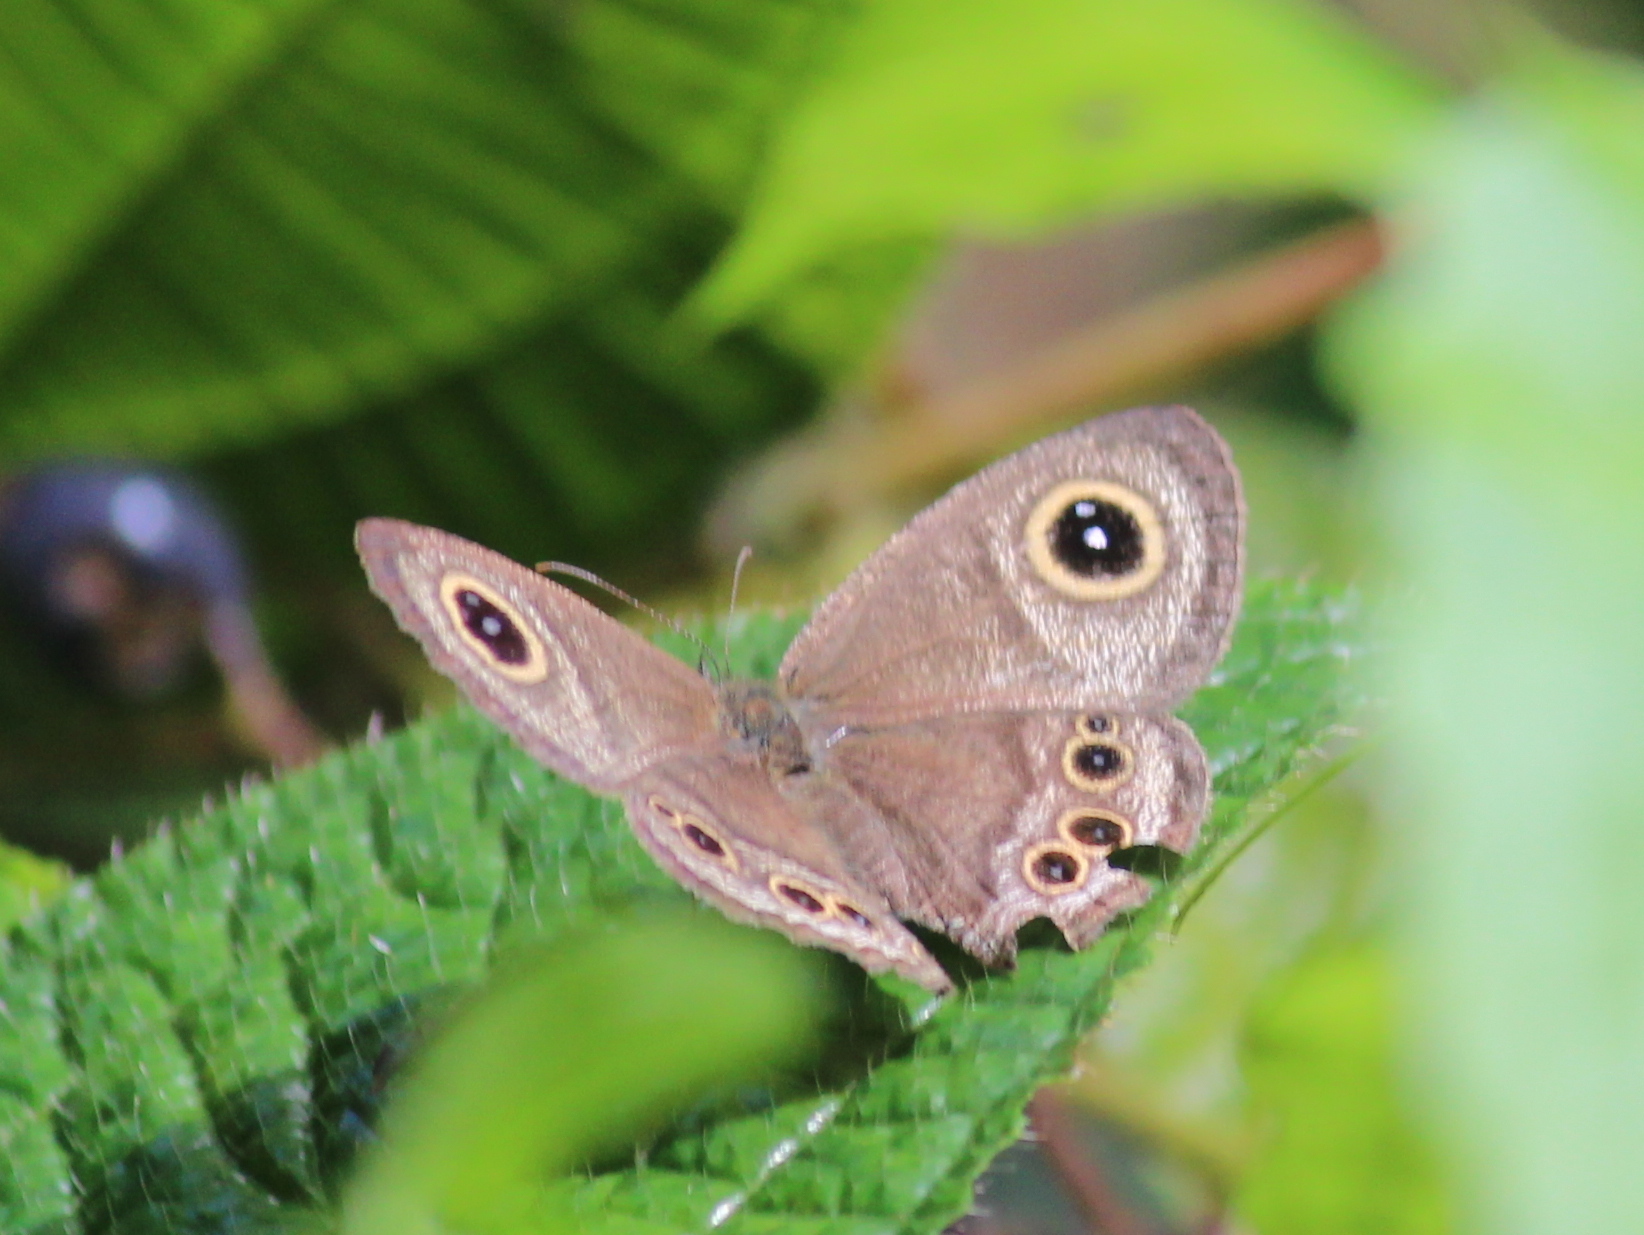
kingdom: Animalia
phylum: Arthropoda
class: Insecta
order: Lepidoptera
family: Nymphalidae
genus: Ypthima
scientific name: Ypthima baldus
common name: Common five-ring
